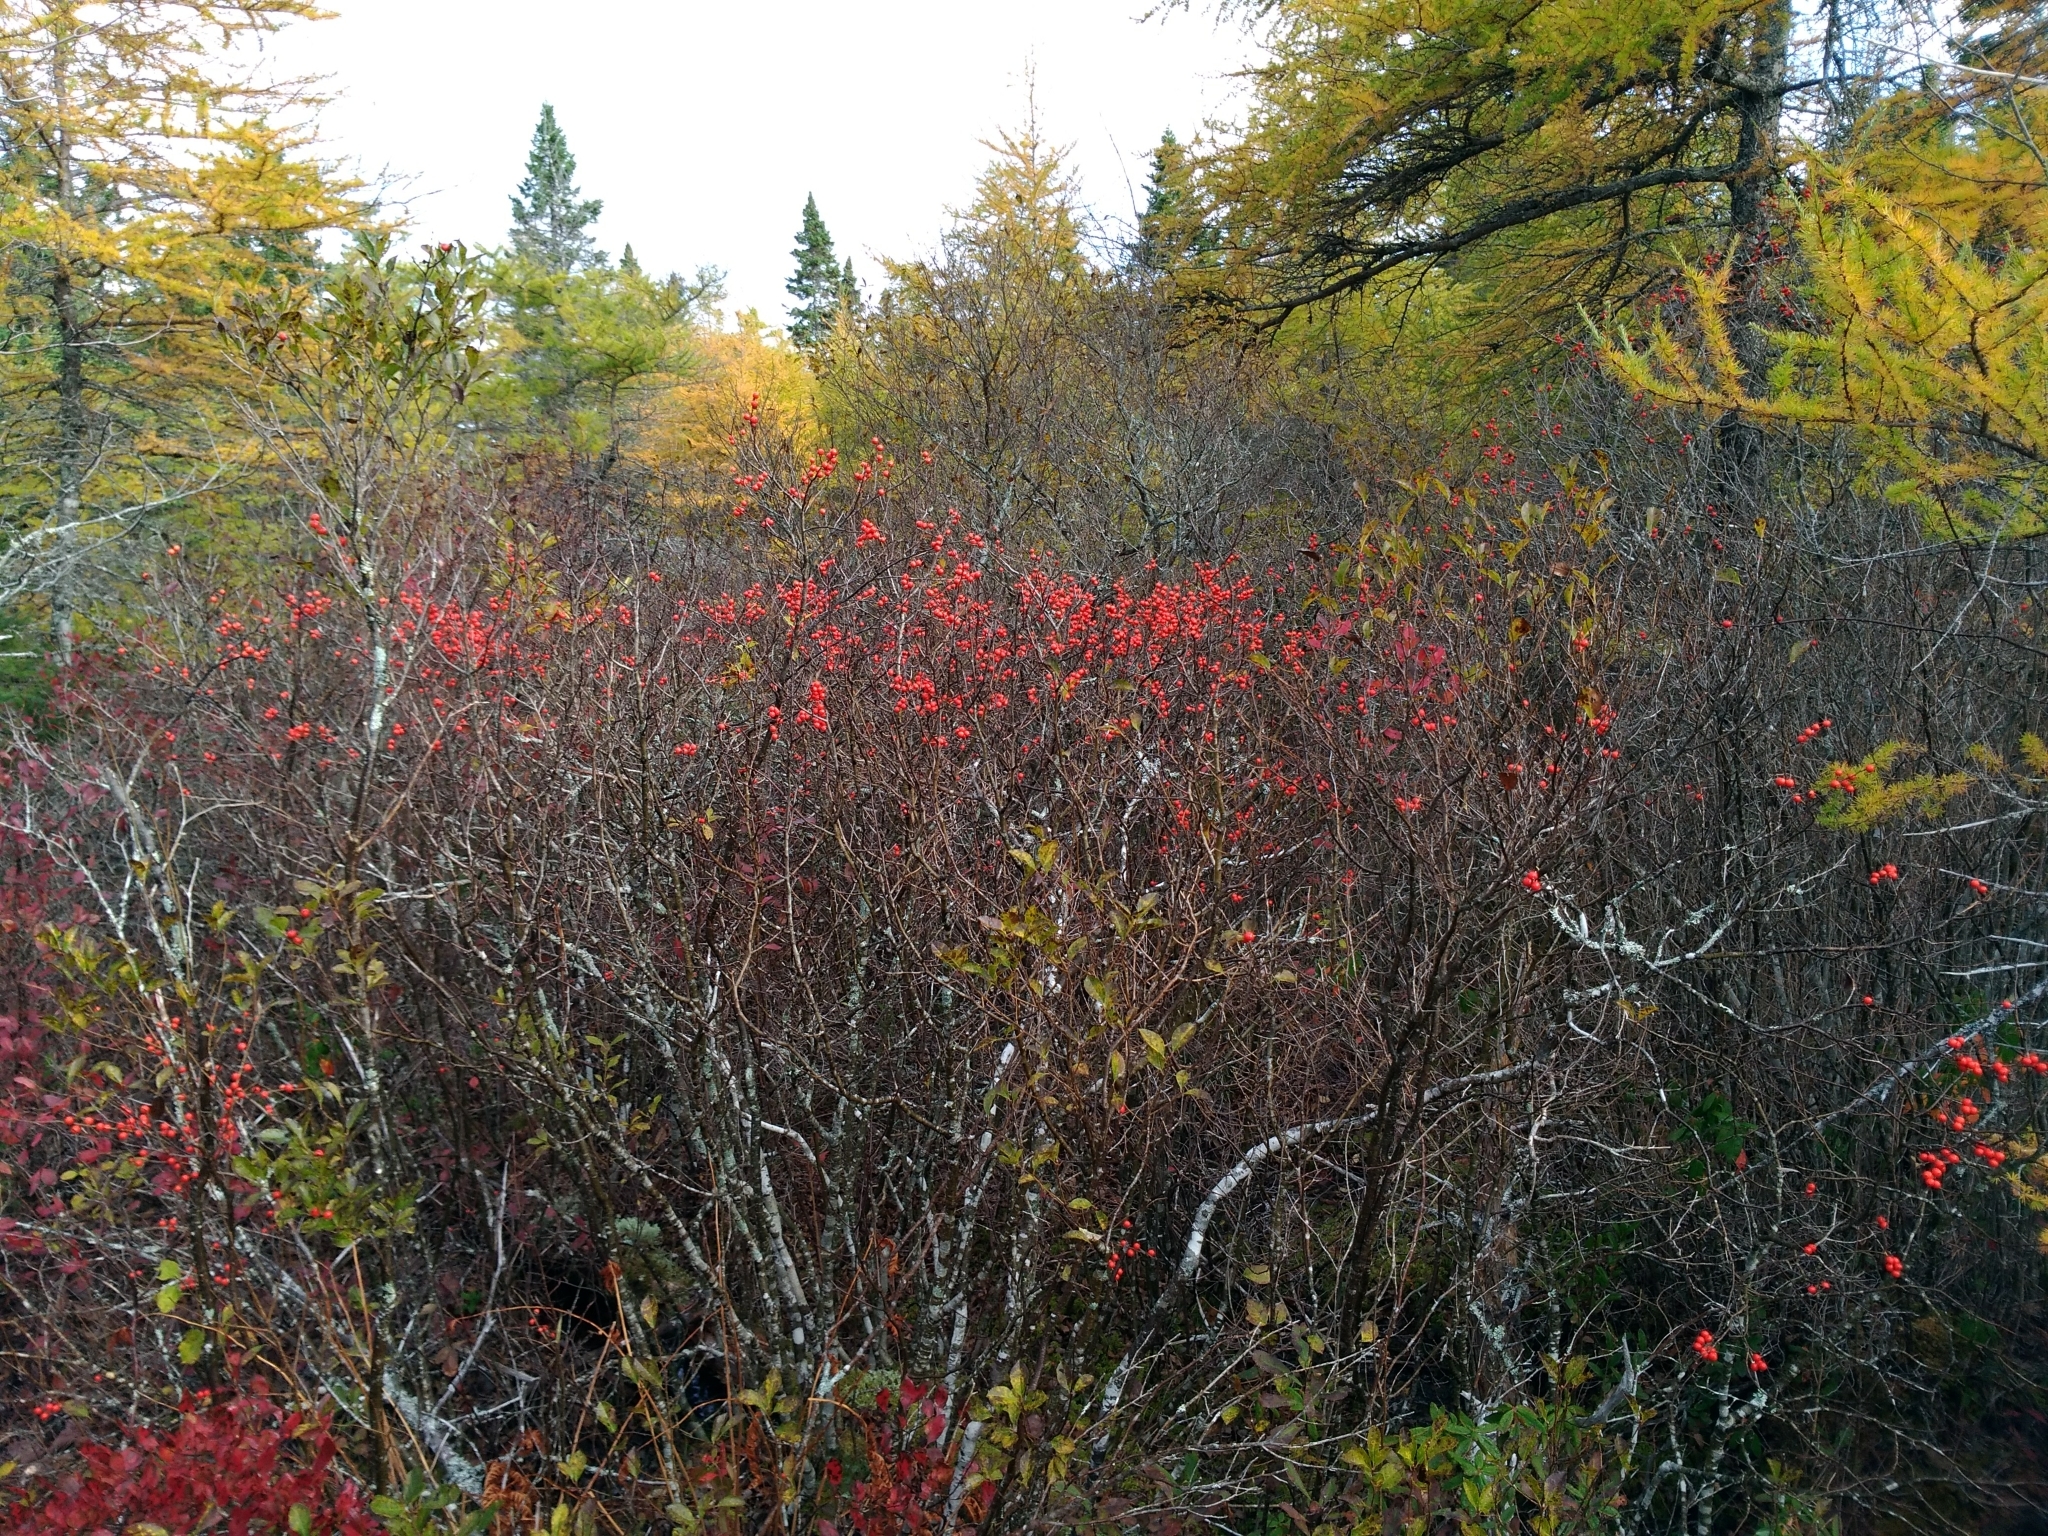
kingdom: Plantae
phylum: Tracheophyta
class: Magnoliopsida
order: Aquifoliales
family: Aquifoliaceae
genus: Ilex
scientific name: Ilex verticillata
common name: Virginia winterberry
